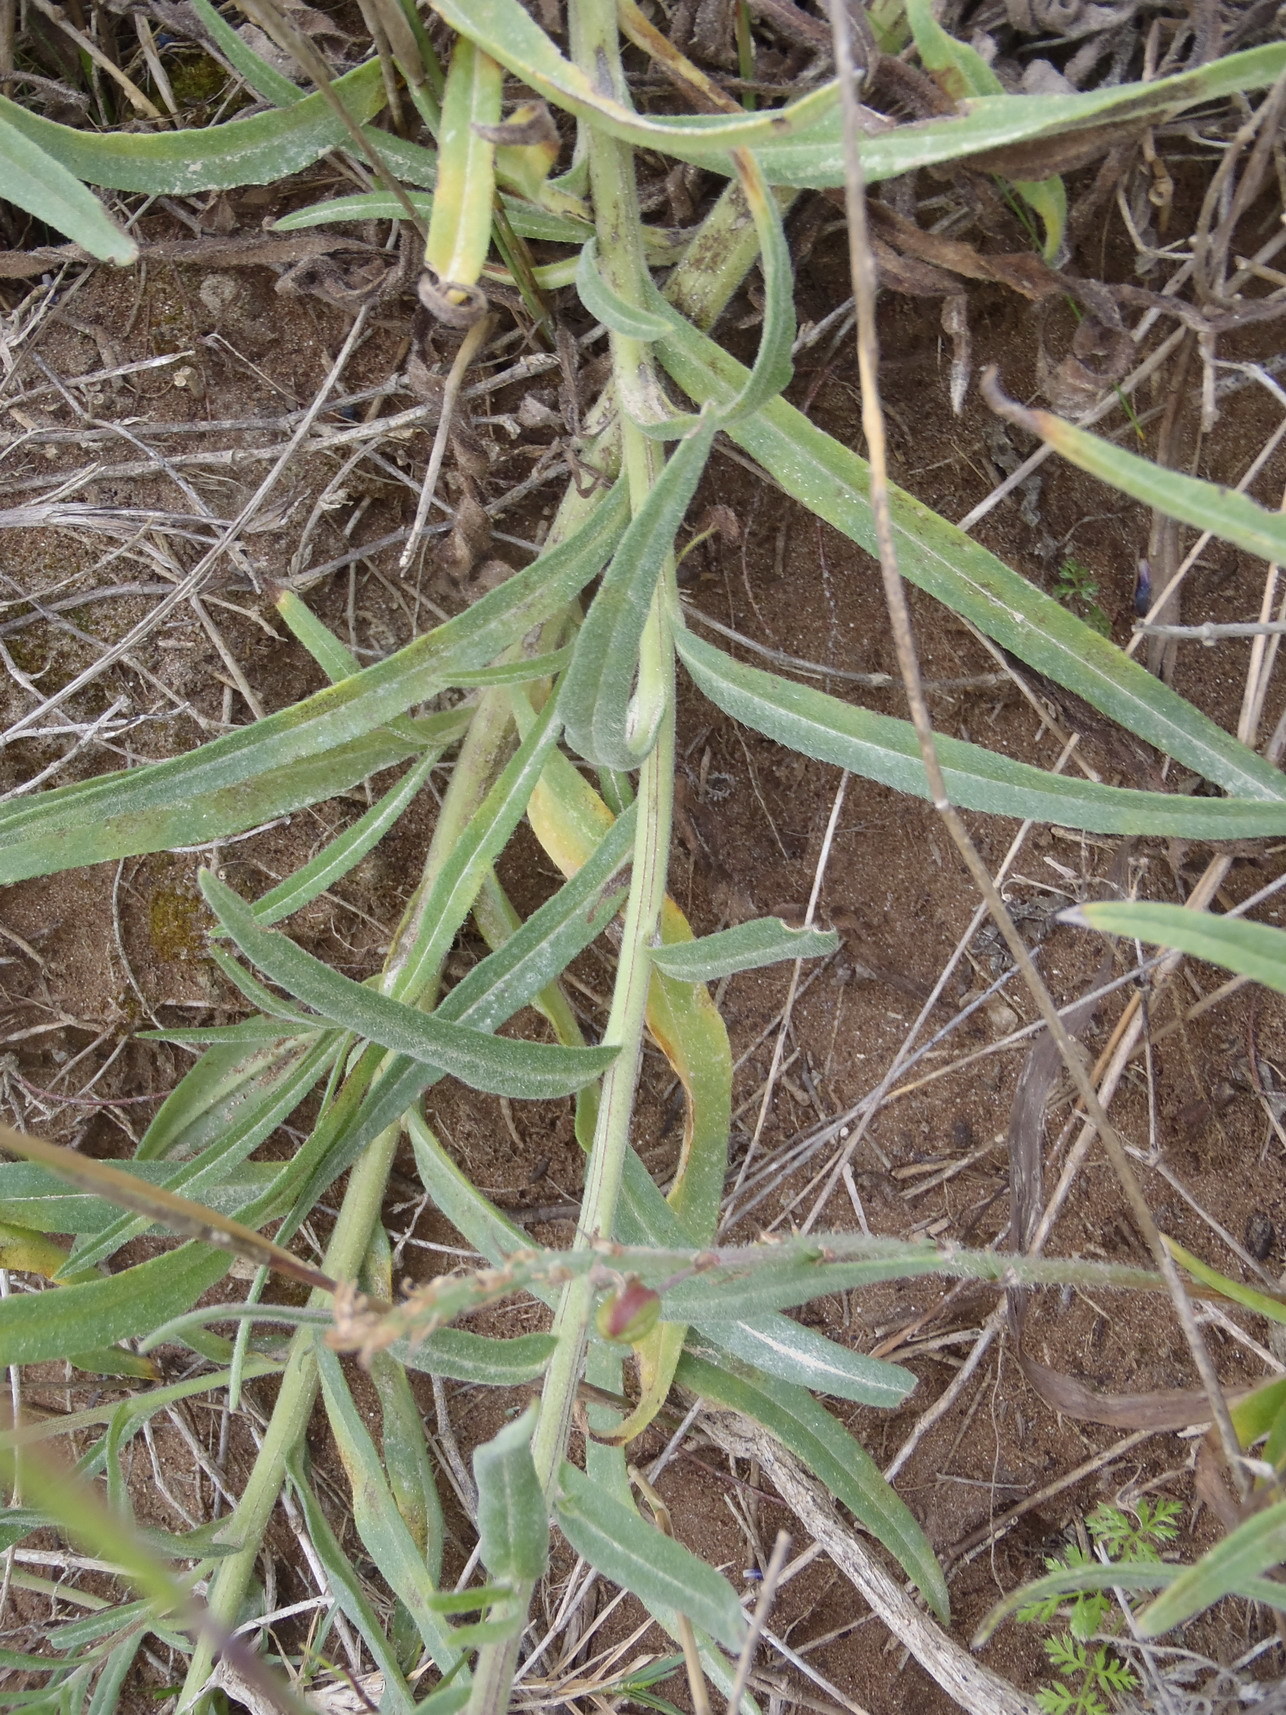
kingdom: Plantae
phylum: Tracheophyta
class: Magnoliopsida
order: Boraginales
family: Boraginaceae
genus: Anchusa
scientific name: Anchusa capensis
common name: Cape bugloss
